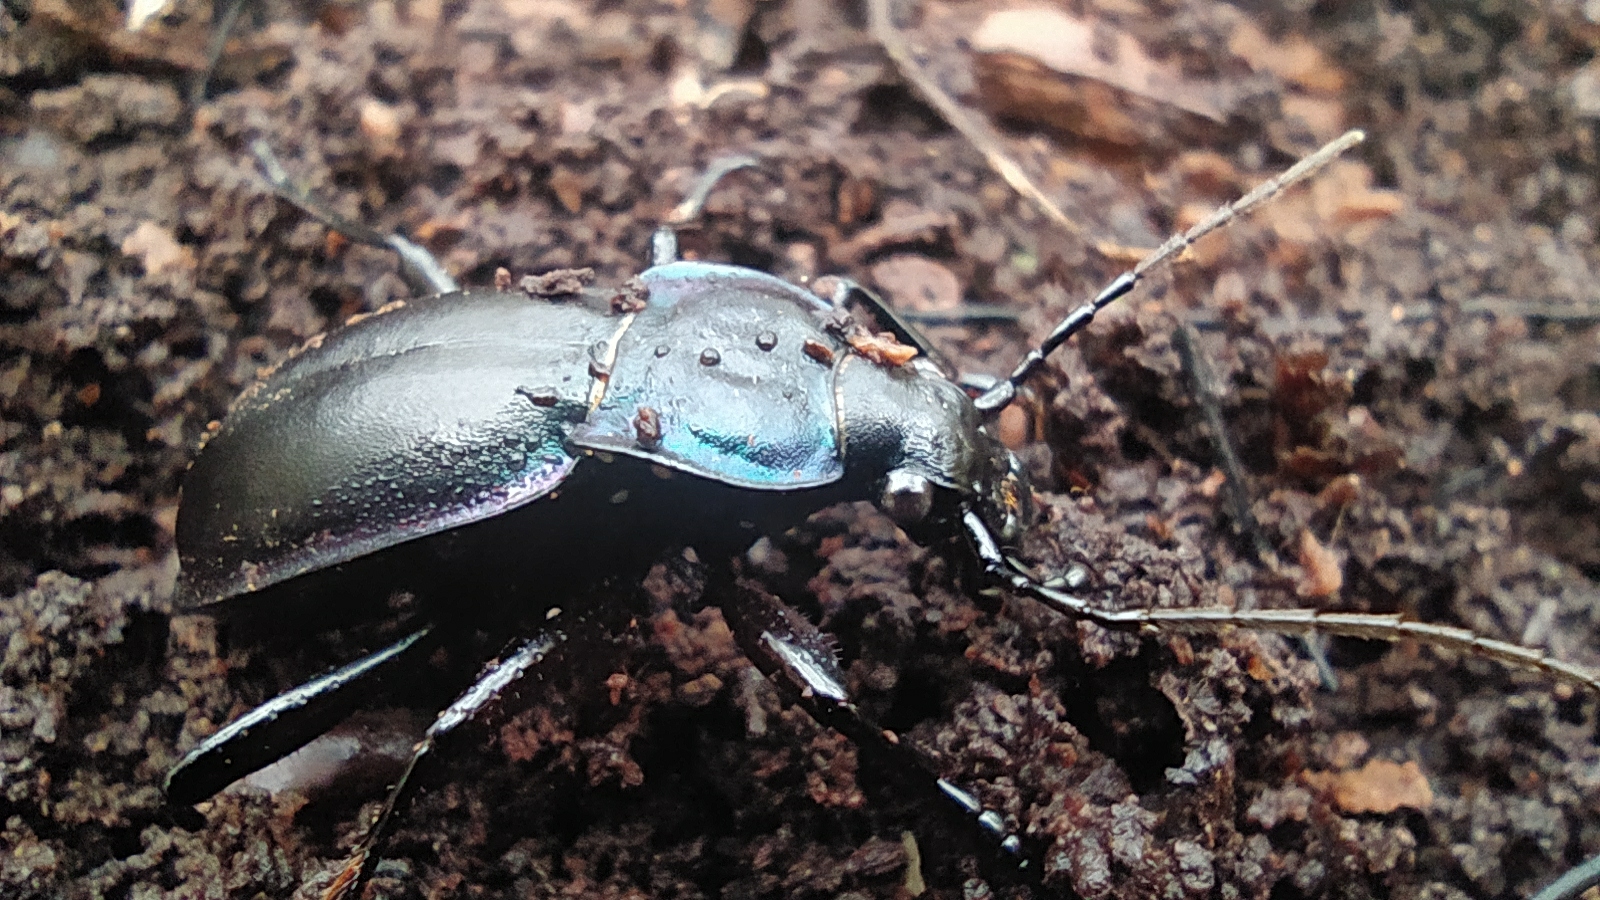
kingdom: Animalia
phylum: Arthropoda
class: Insecta
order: Coleoptera
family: Carabidae
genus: Carabus
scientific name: Carabus glabratus
